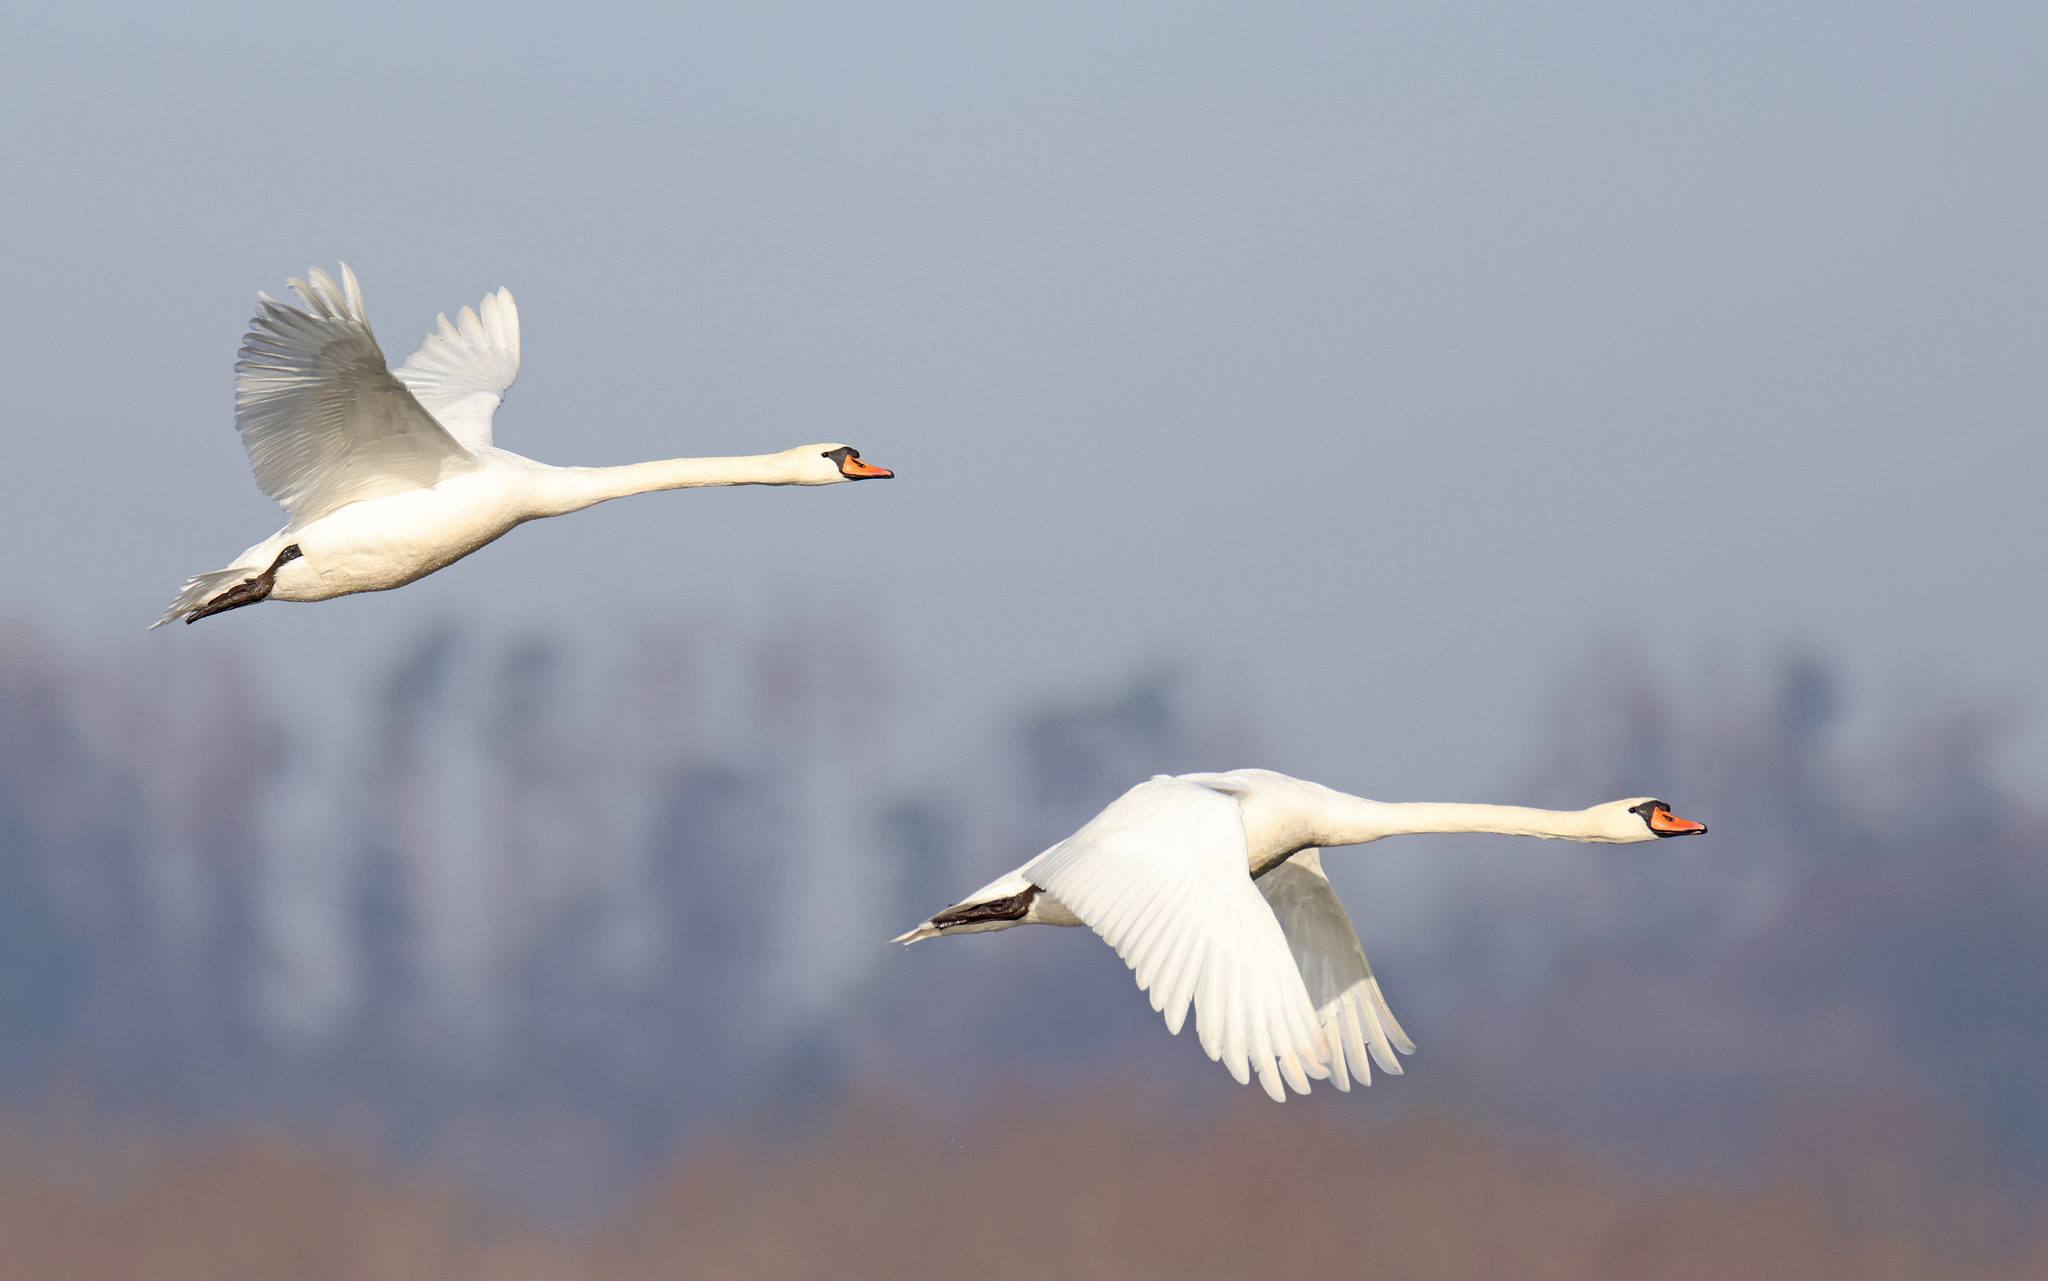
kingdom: Animalia
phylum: Chordata
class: Aves
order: Anseriformes
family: Anatidae
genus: Cygnus
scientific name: Cygnus olor
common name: Mute swan
